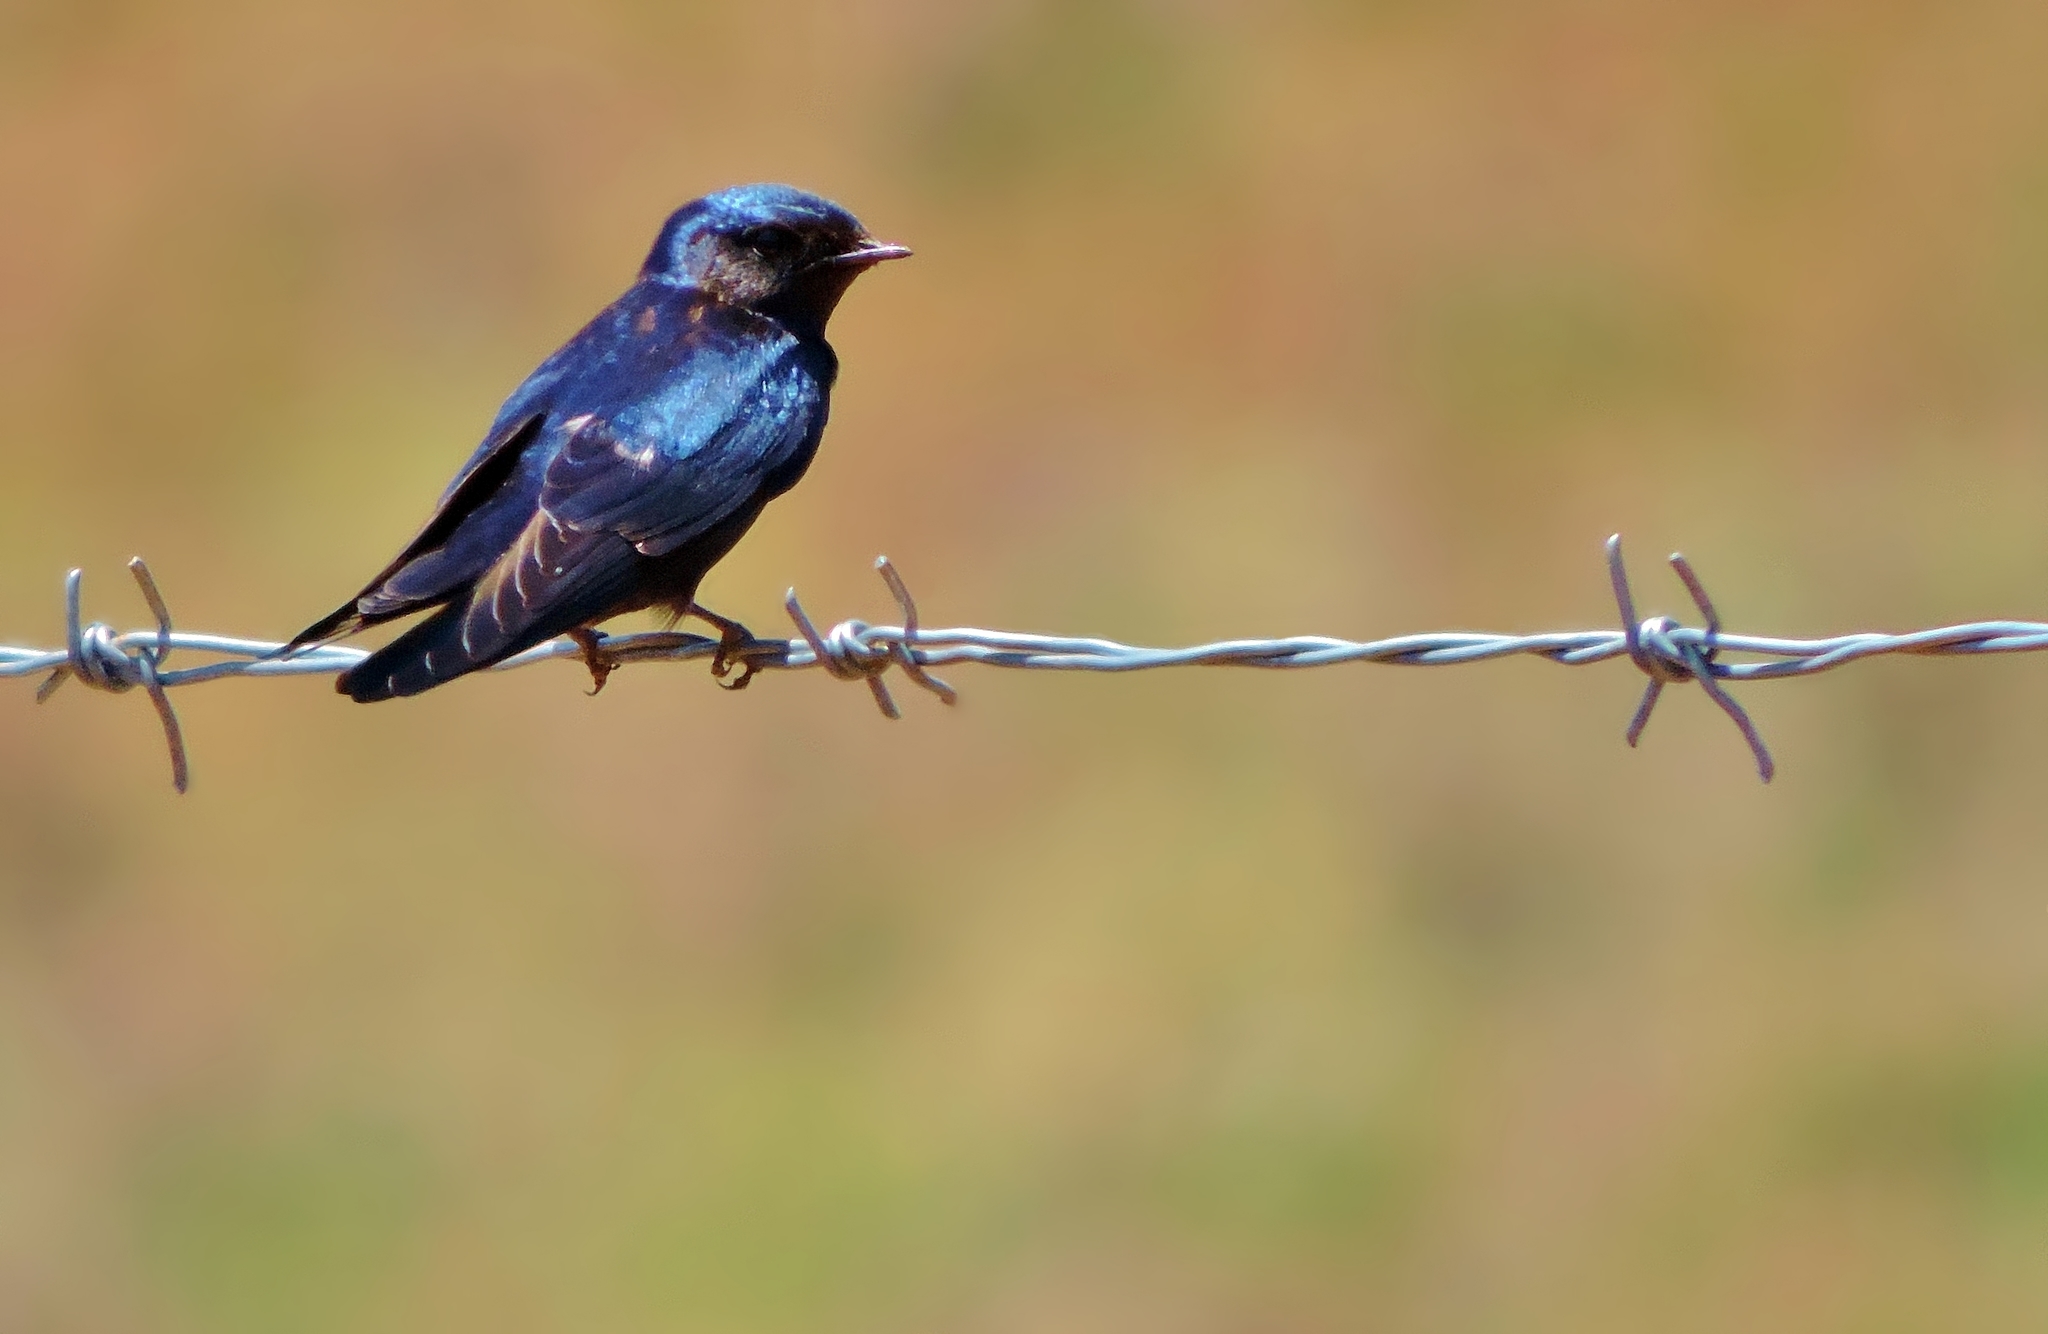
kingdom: Animalia
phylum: Chordata
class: Aves
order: Passeriformes
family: Hirundinidae
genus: Hirundo
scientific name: Hirundo atrocaerulea
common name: Blue swallow
